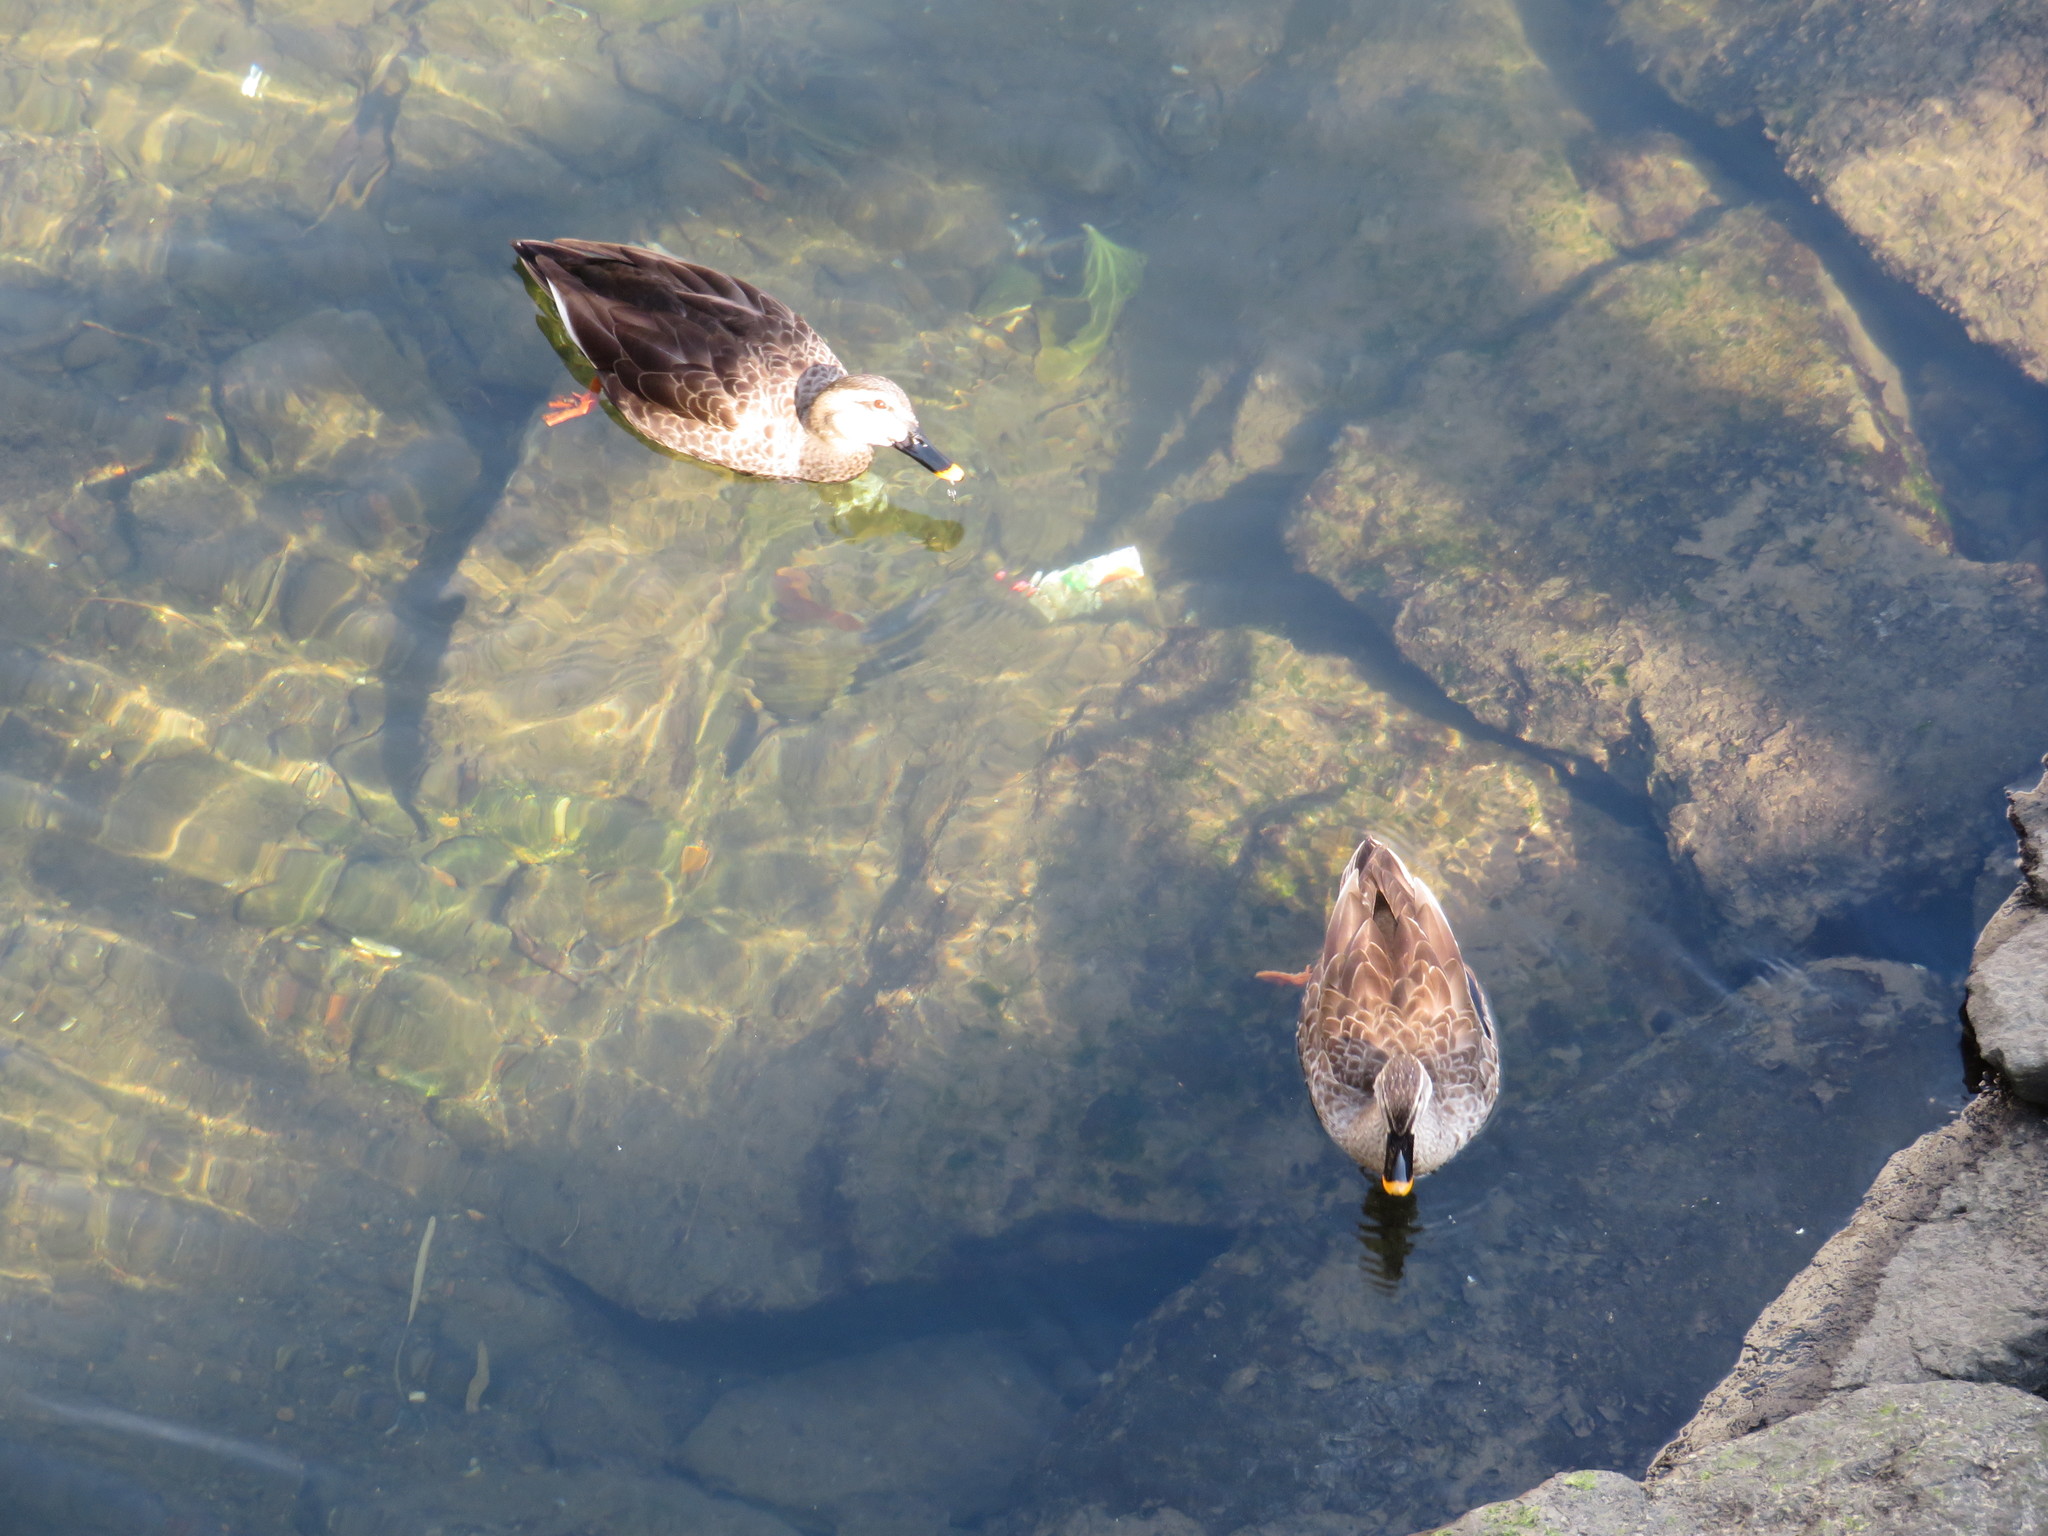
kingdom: Animalia
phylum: Chordata
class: Aves
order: Anseriformes
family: Anatidae
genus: Anas
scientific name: Anas zonorhyncha
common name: Eastern spot-billed duck
